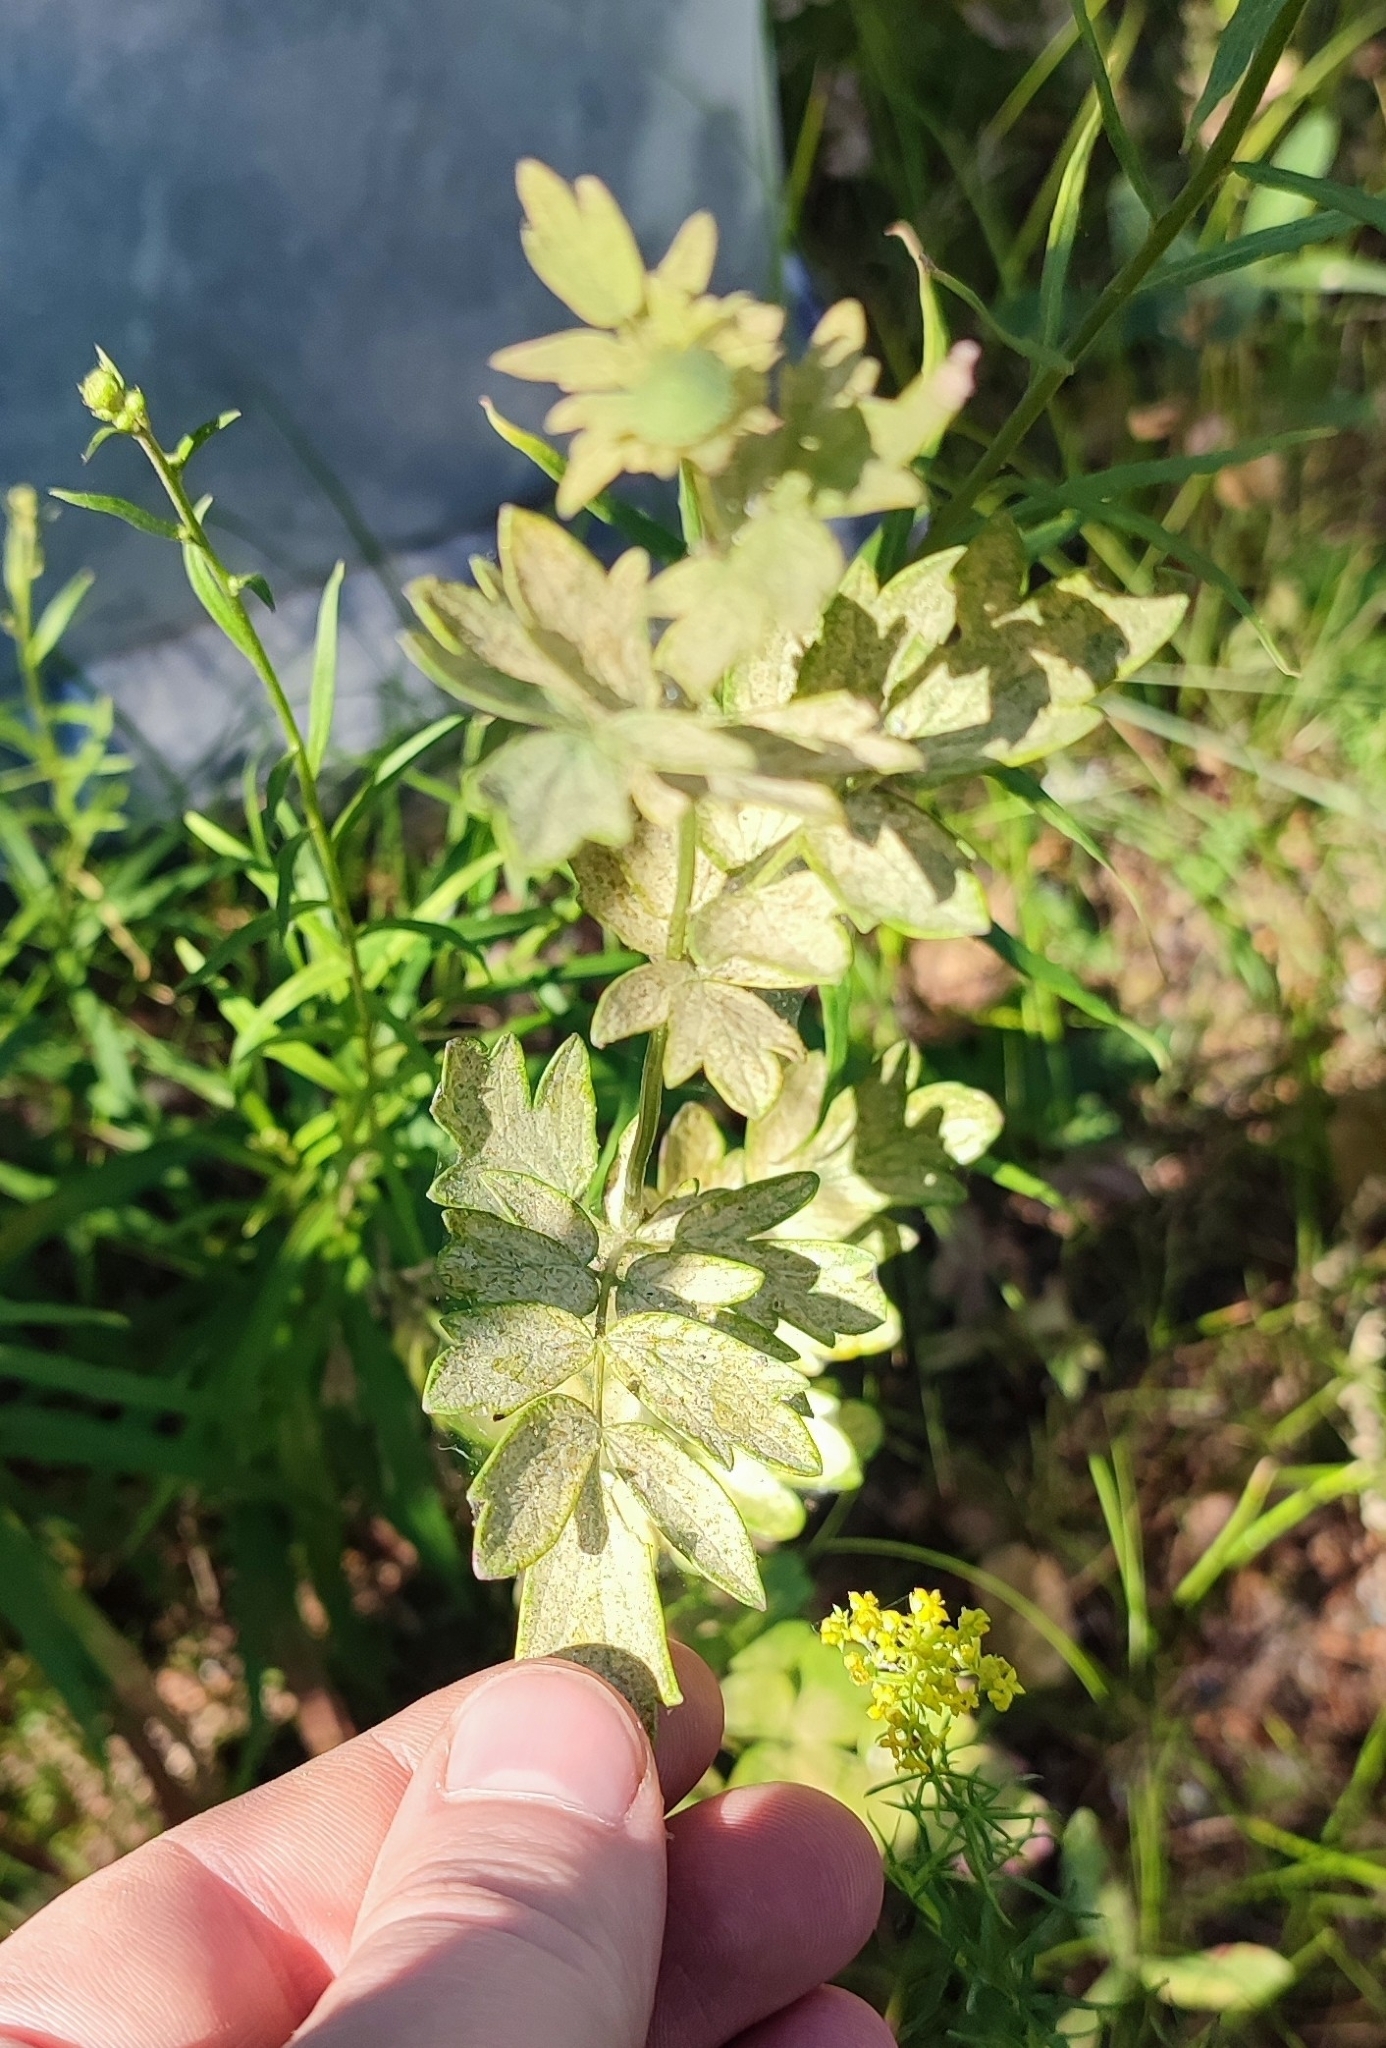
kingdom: Plantae
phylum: Tracheophyta
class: Magnoliopsida
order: Ranunculales
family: Ranunculaceae
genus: Thalictrum
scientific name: Thalictrum simplex
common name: Small meadow-rue
